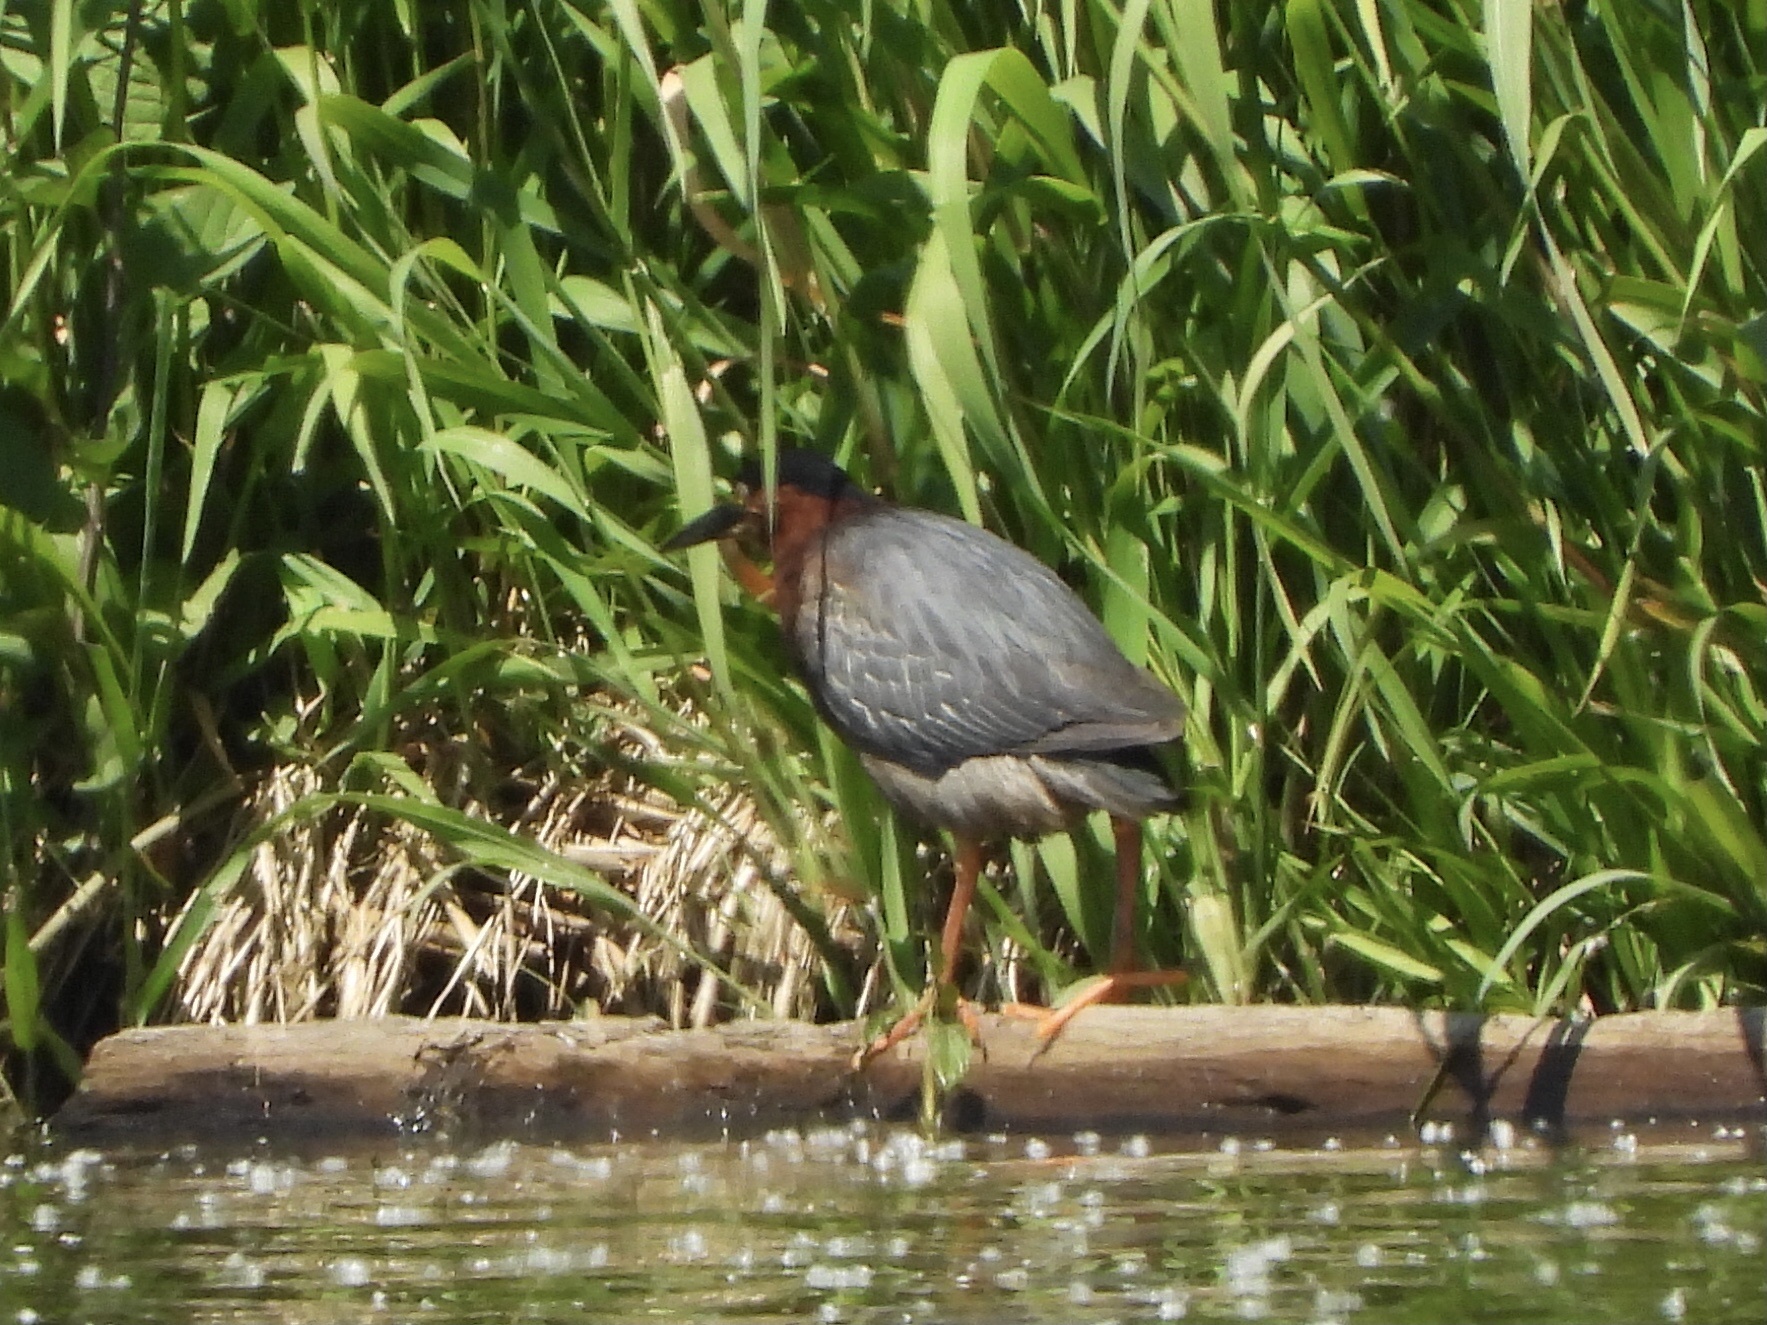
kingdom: Animalia
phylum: Chordata
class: Aves
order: Pelecaniformes
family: Ardeidae
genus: Butorides
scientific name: Butorides virescens
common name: Green heron
